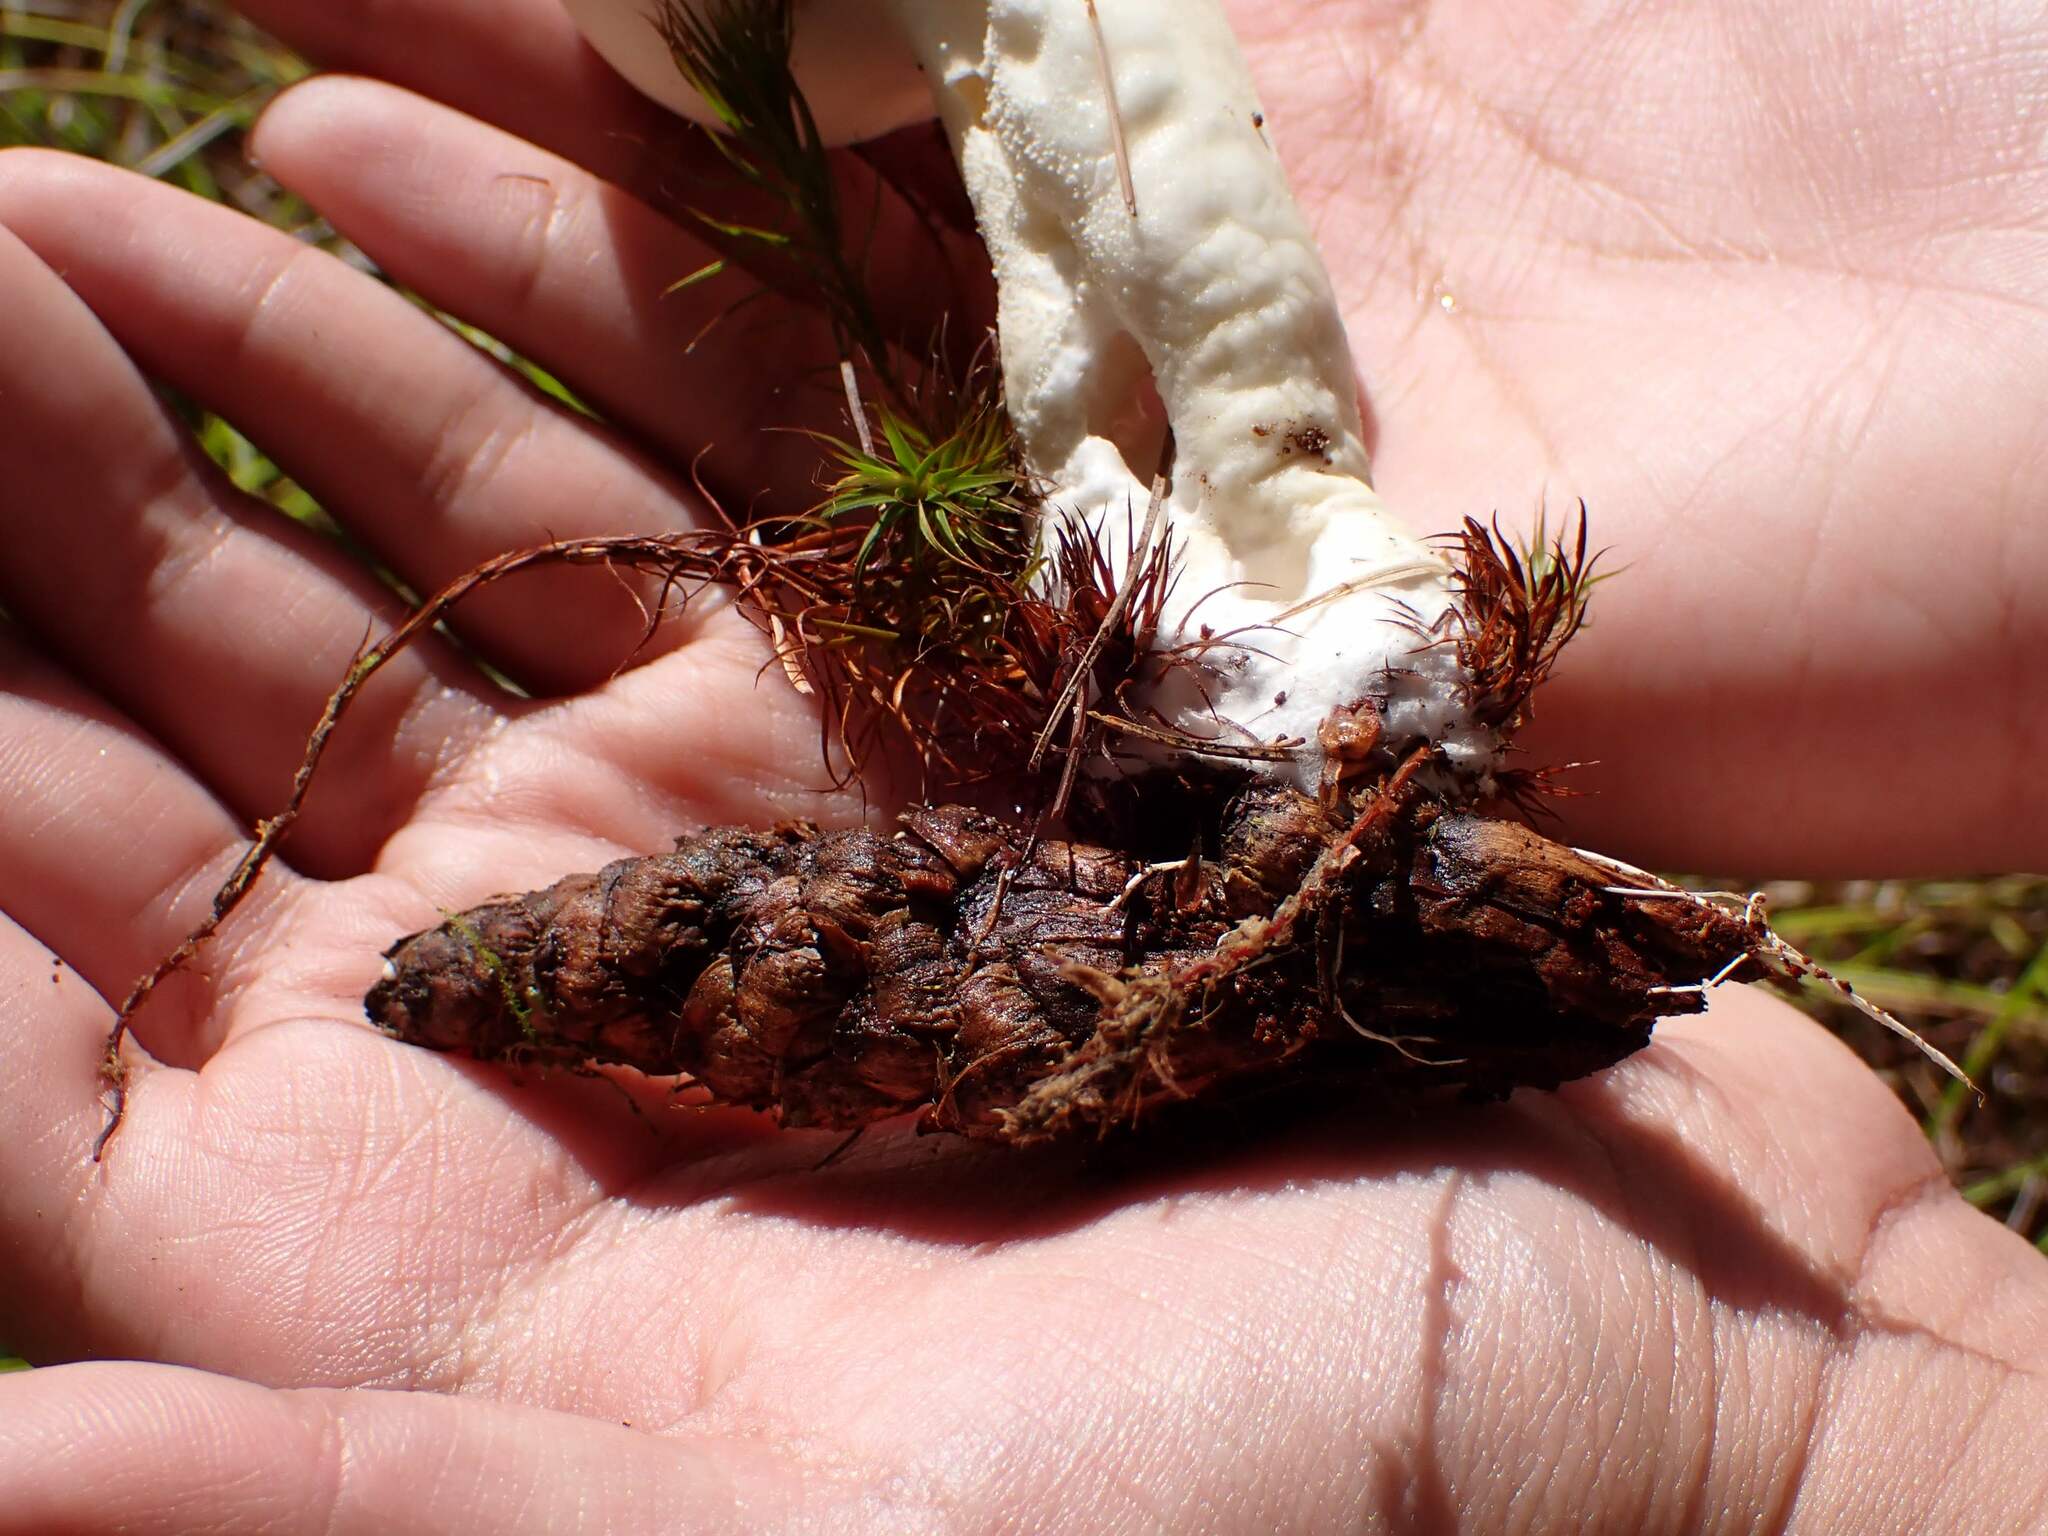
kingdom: Fungi
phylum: Basidiomycota
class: Agaricomycetes
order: Agaricales
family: Lycoperdaceae
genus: Lycoperdon
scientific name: Lycoperdon ericaeum
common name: Heath puffball
